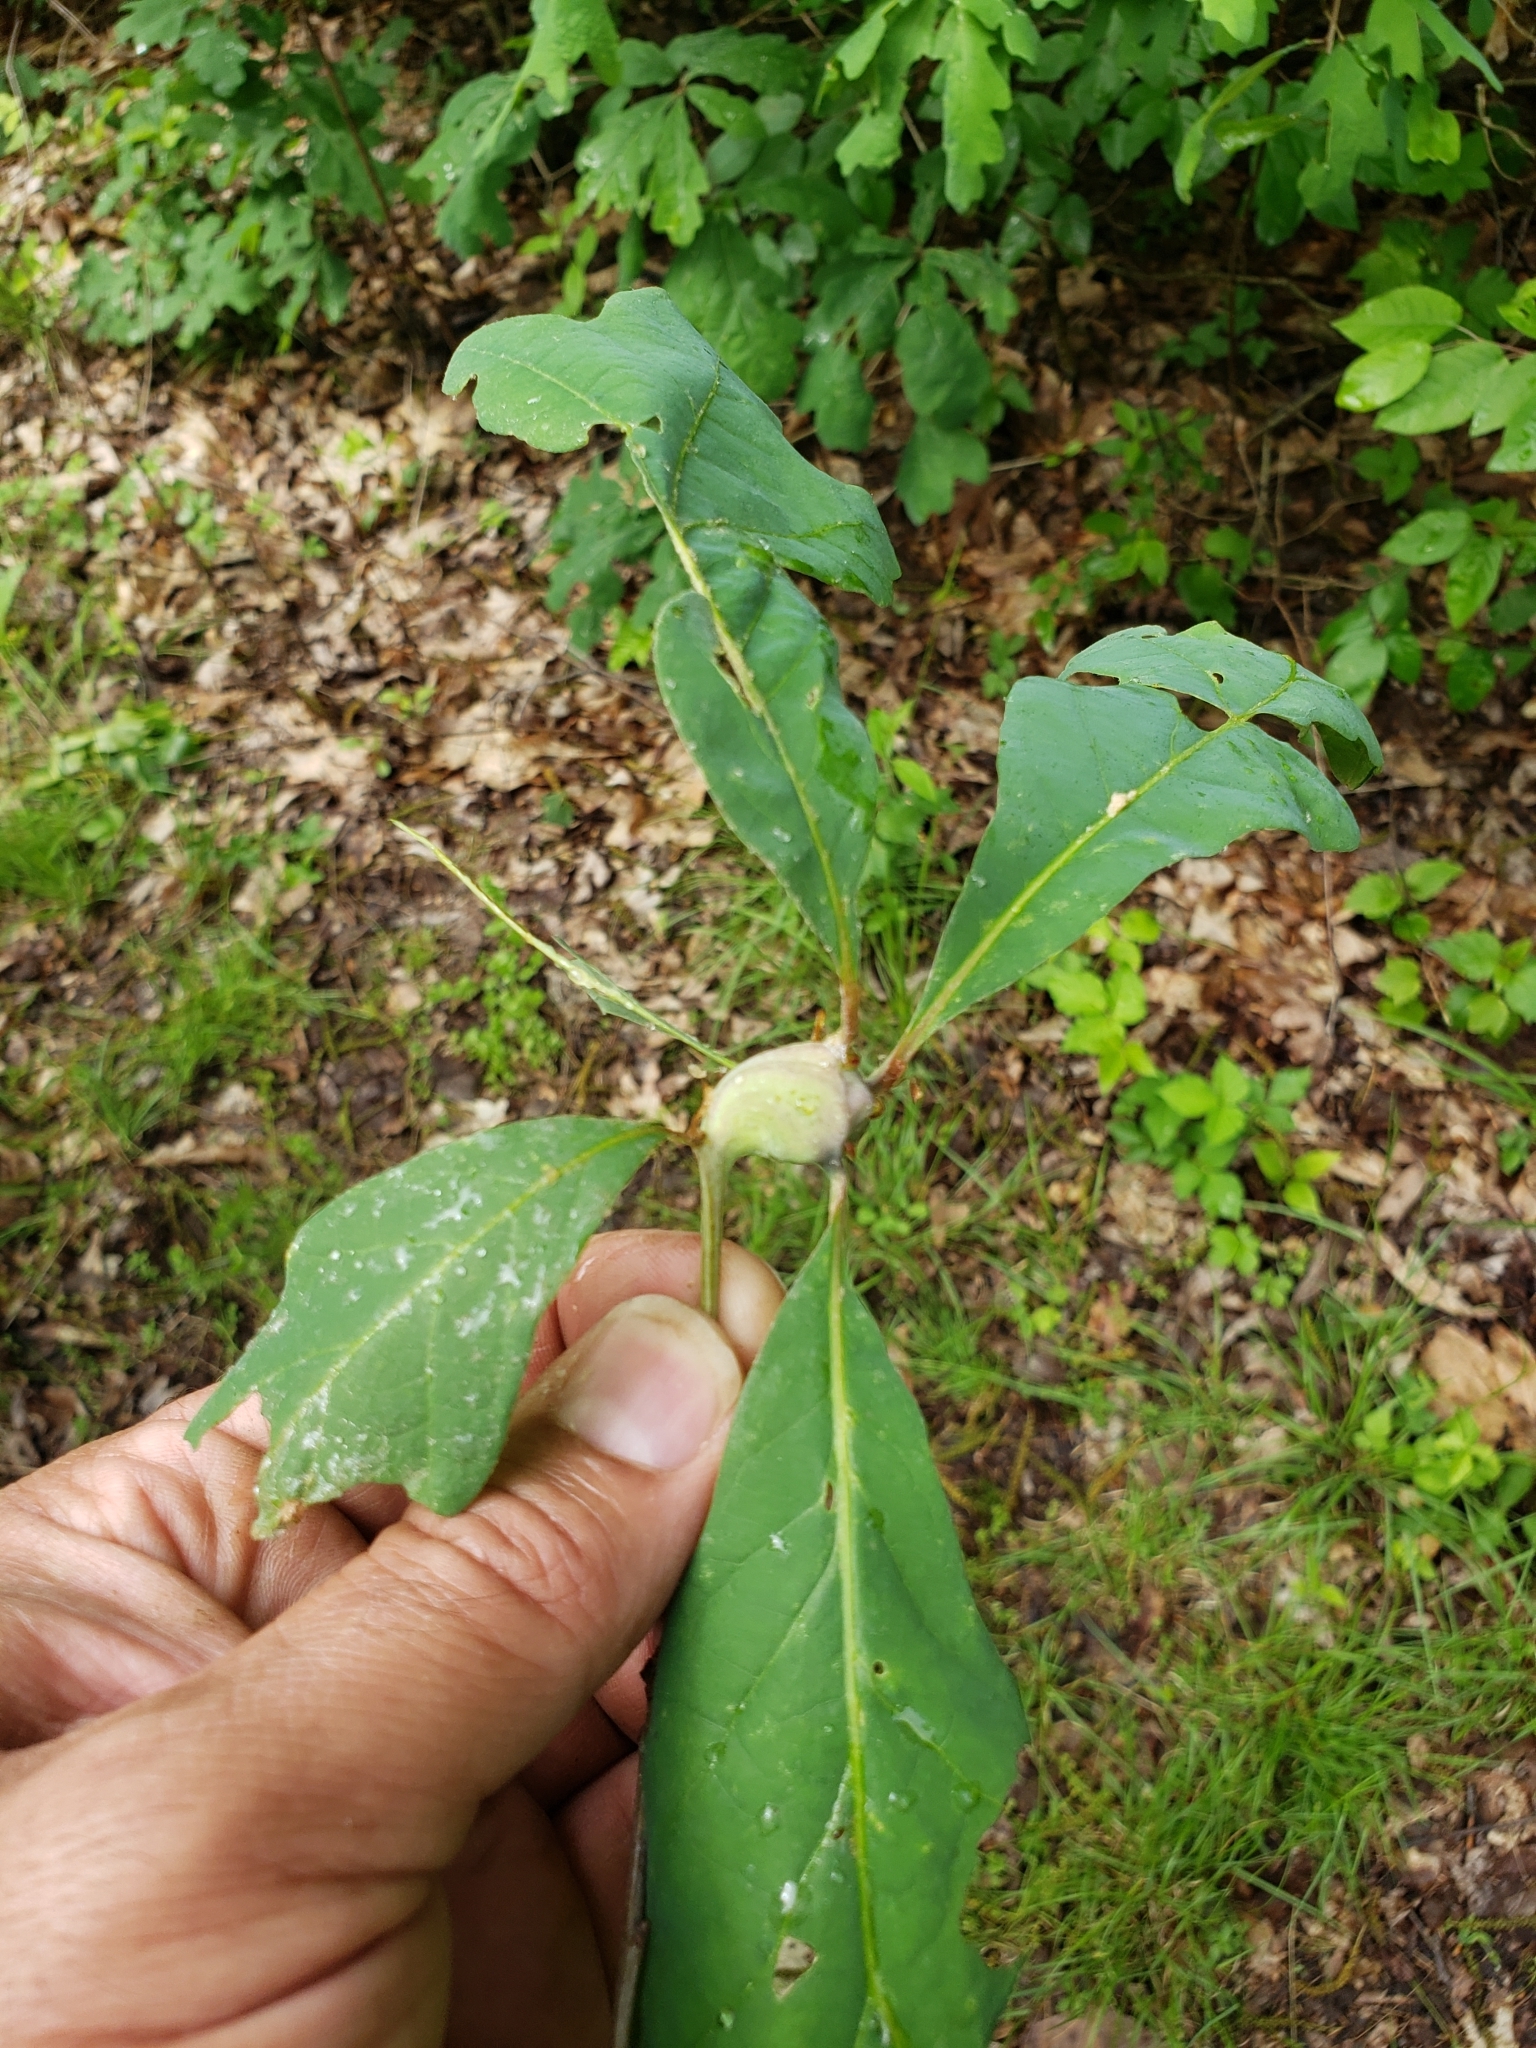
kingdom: Animalia
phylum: Arthropoda
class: Insecta
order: Hymenoptera
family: Cynipidae
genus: Callirhytis
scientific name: Callirhytis clavula
